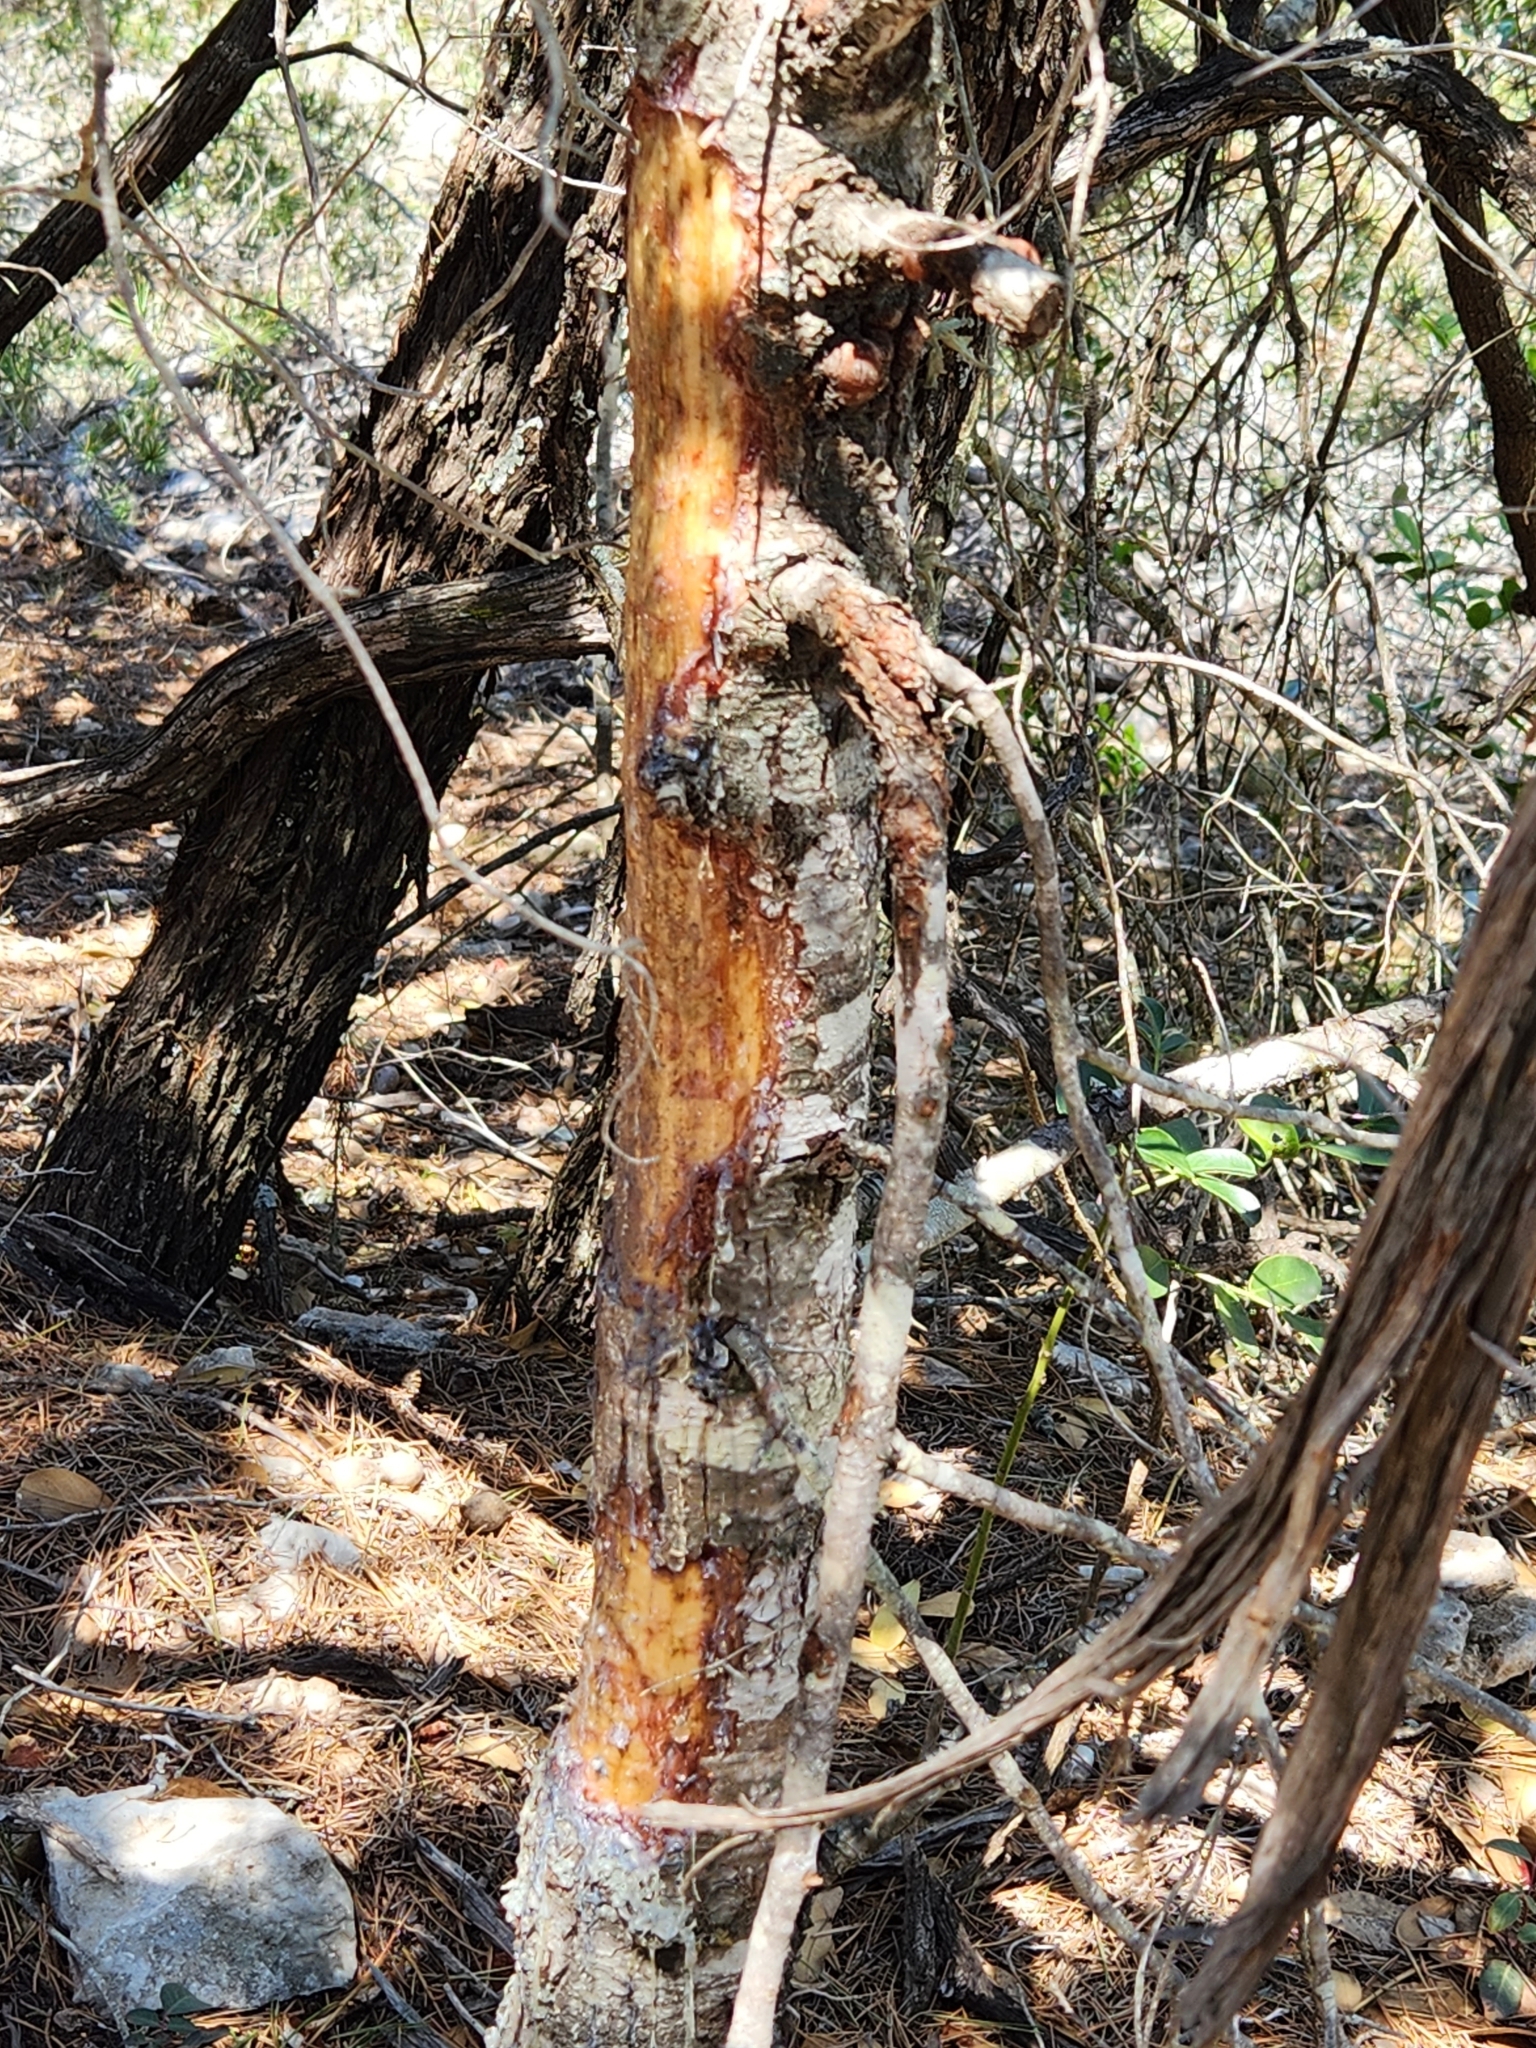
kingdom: Animalia
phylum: Chordata
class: Mammalia
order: Rodentia
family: Erethizontidae
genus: Erethizon
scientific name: Erethizon dorsatus
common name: North american porcupine
